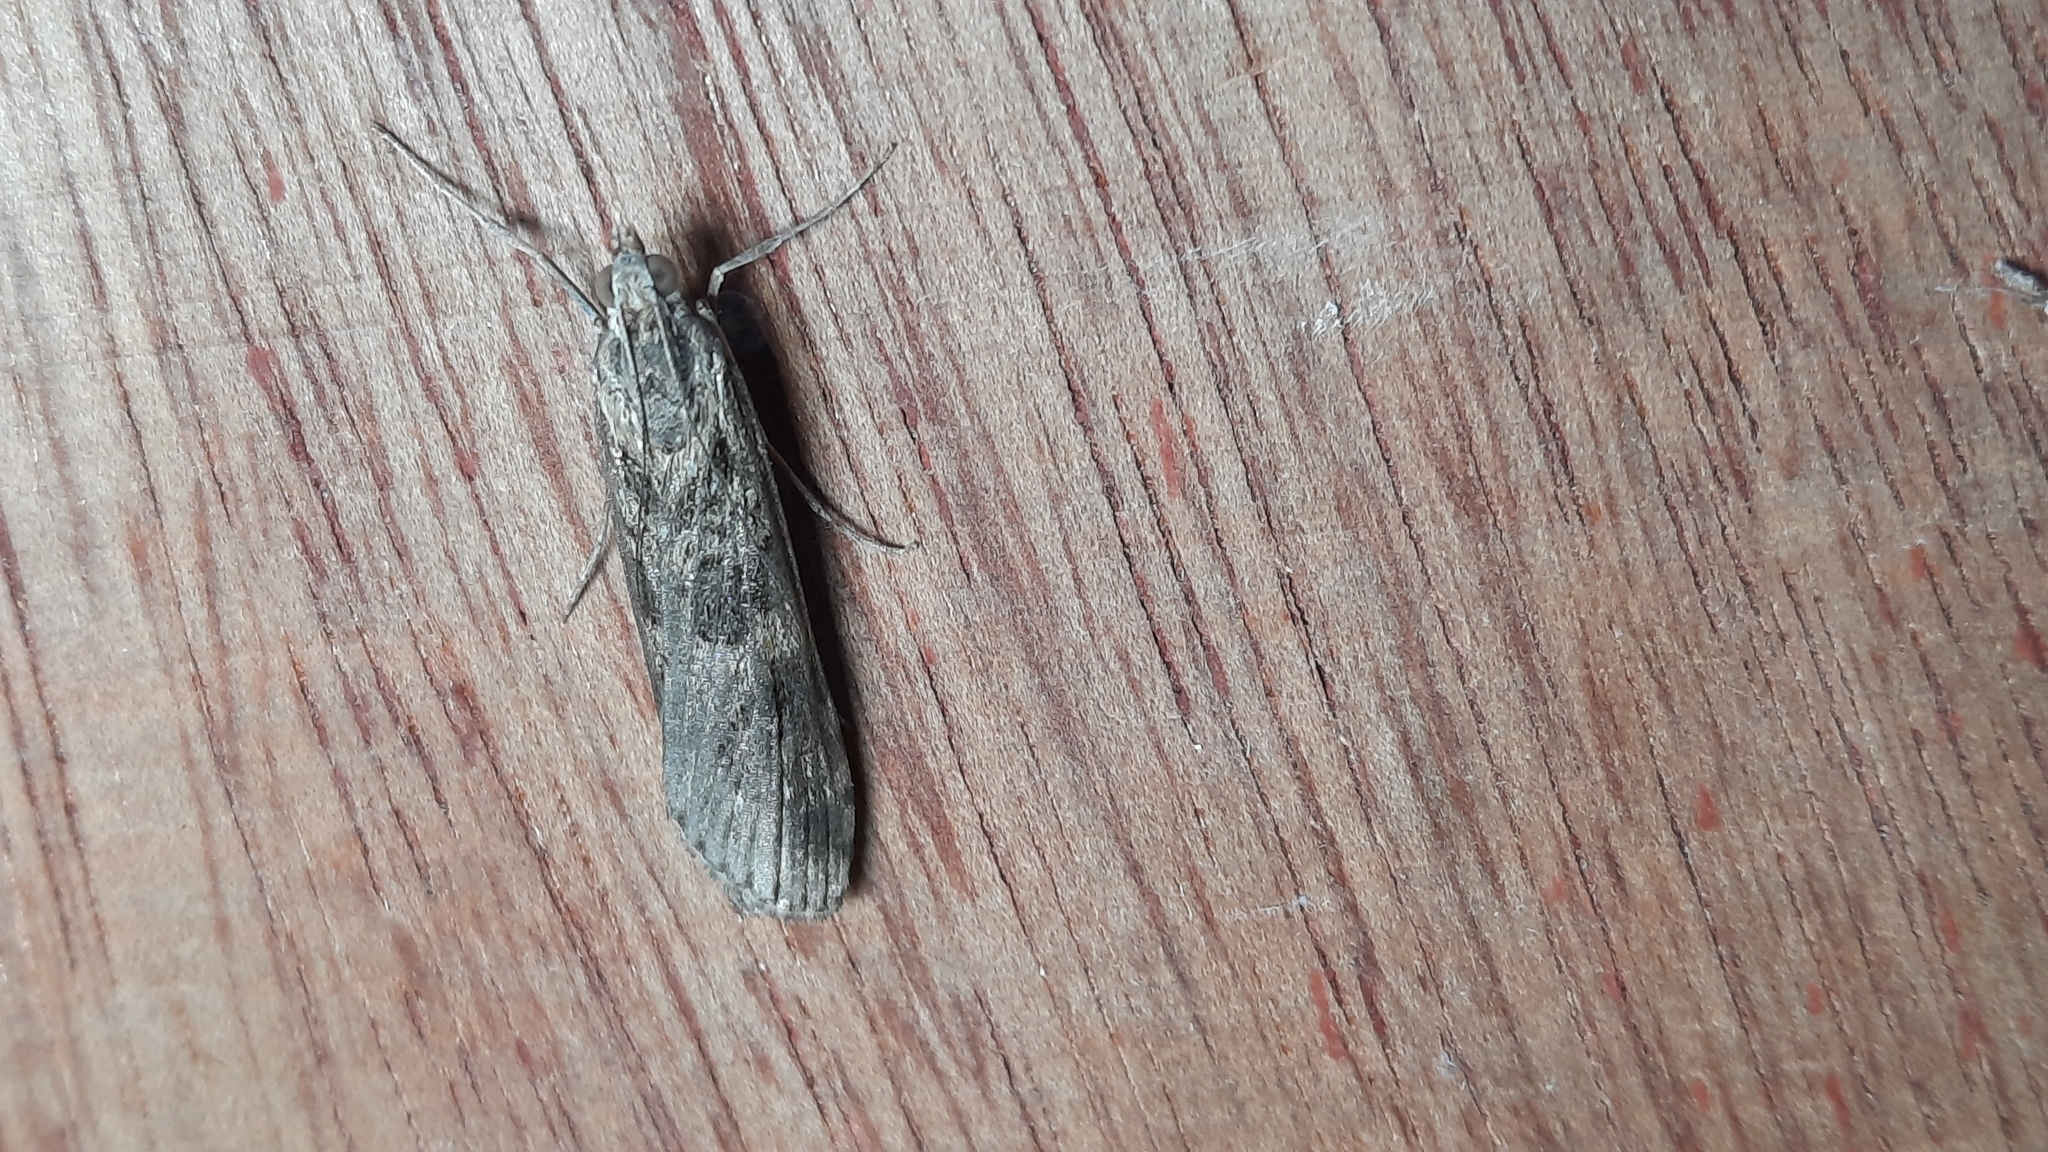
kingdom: Animalia
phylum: Arthropoda
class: Insecta
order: Lepidoptera
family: Crambidae
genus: Nomophila
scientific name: Nomophila noctuella
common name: Rush veneer
